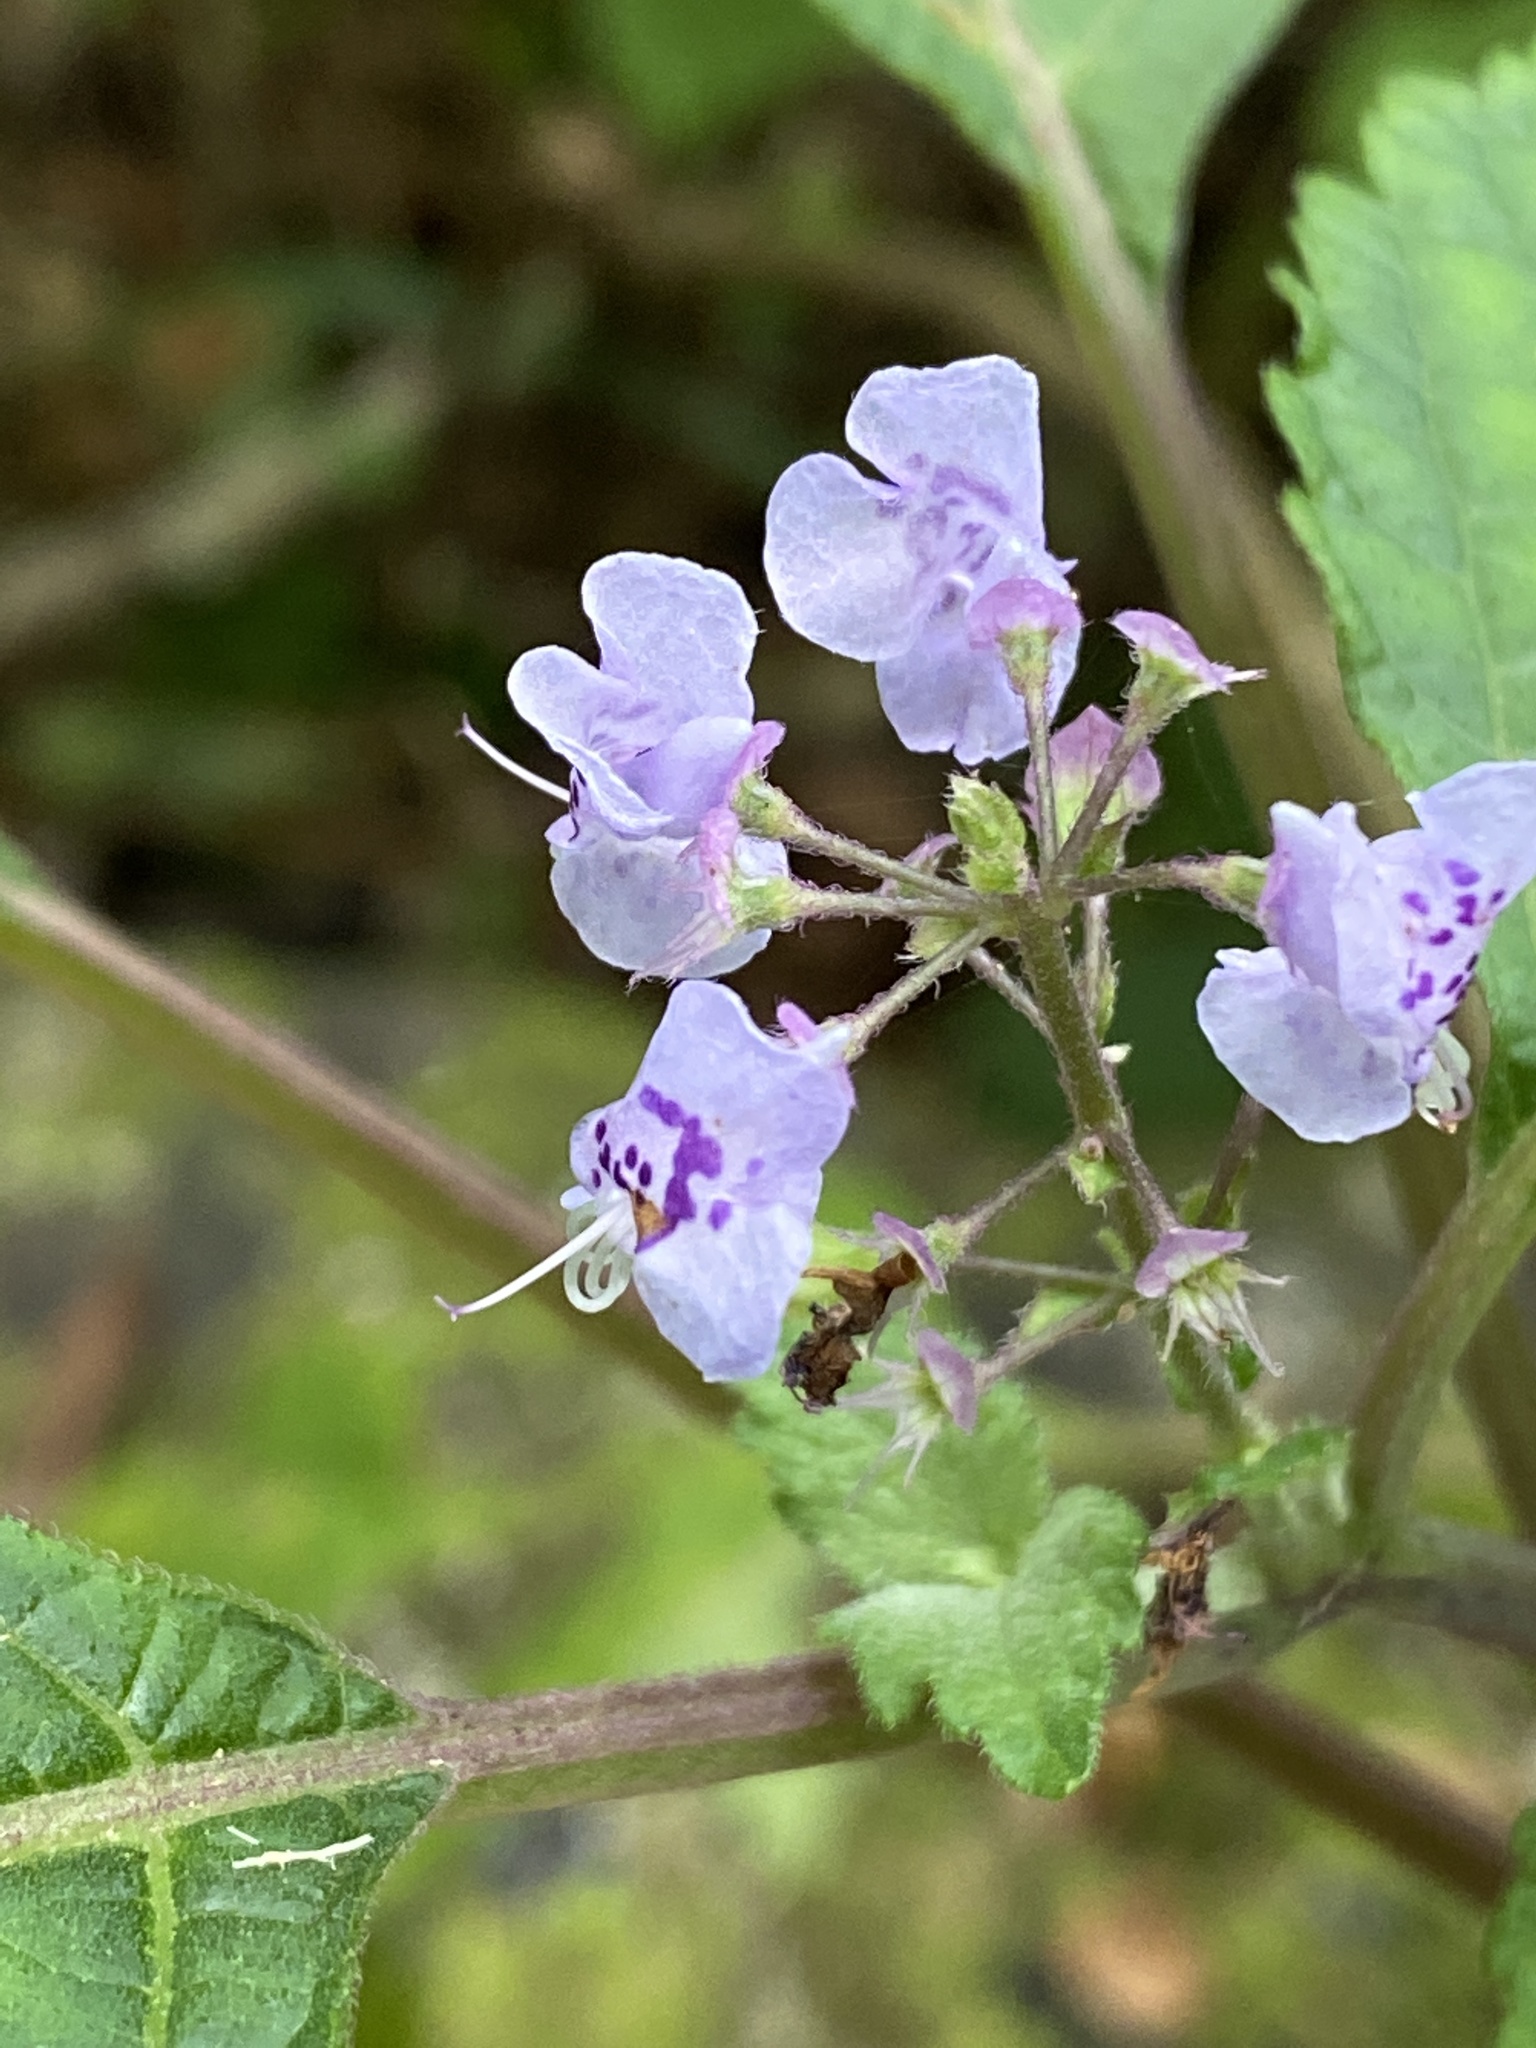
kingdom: Plantae
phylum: Tracheophyta
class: Magnoliopsida
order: Lamiales
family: Lamiaceae
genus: Plectranthus
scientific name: Plectranthus fruticosus
